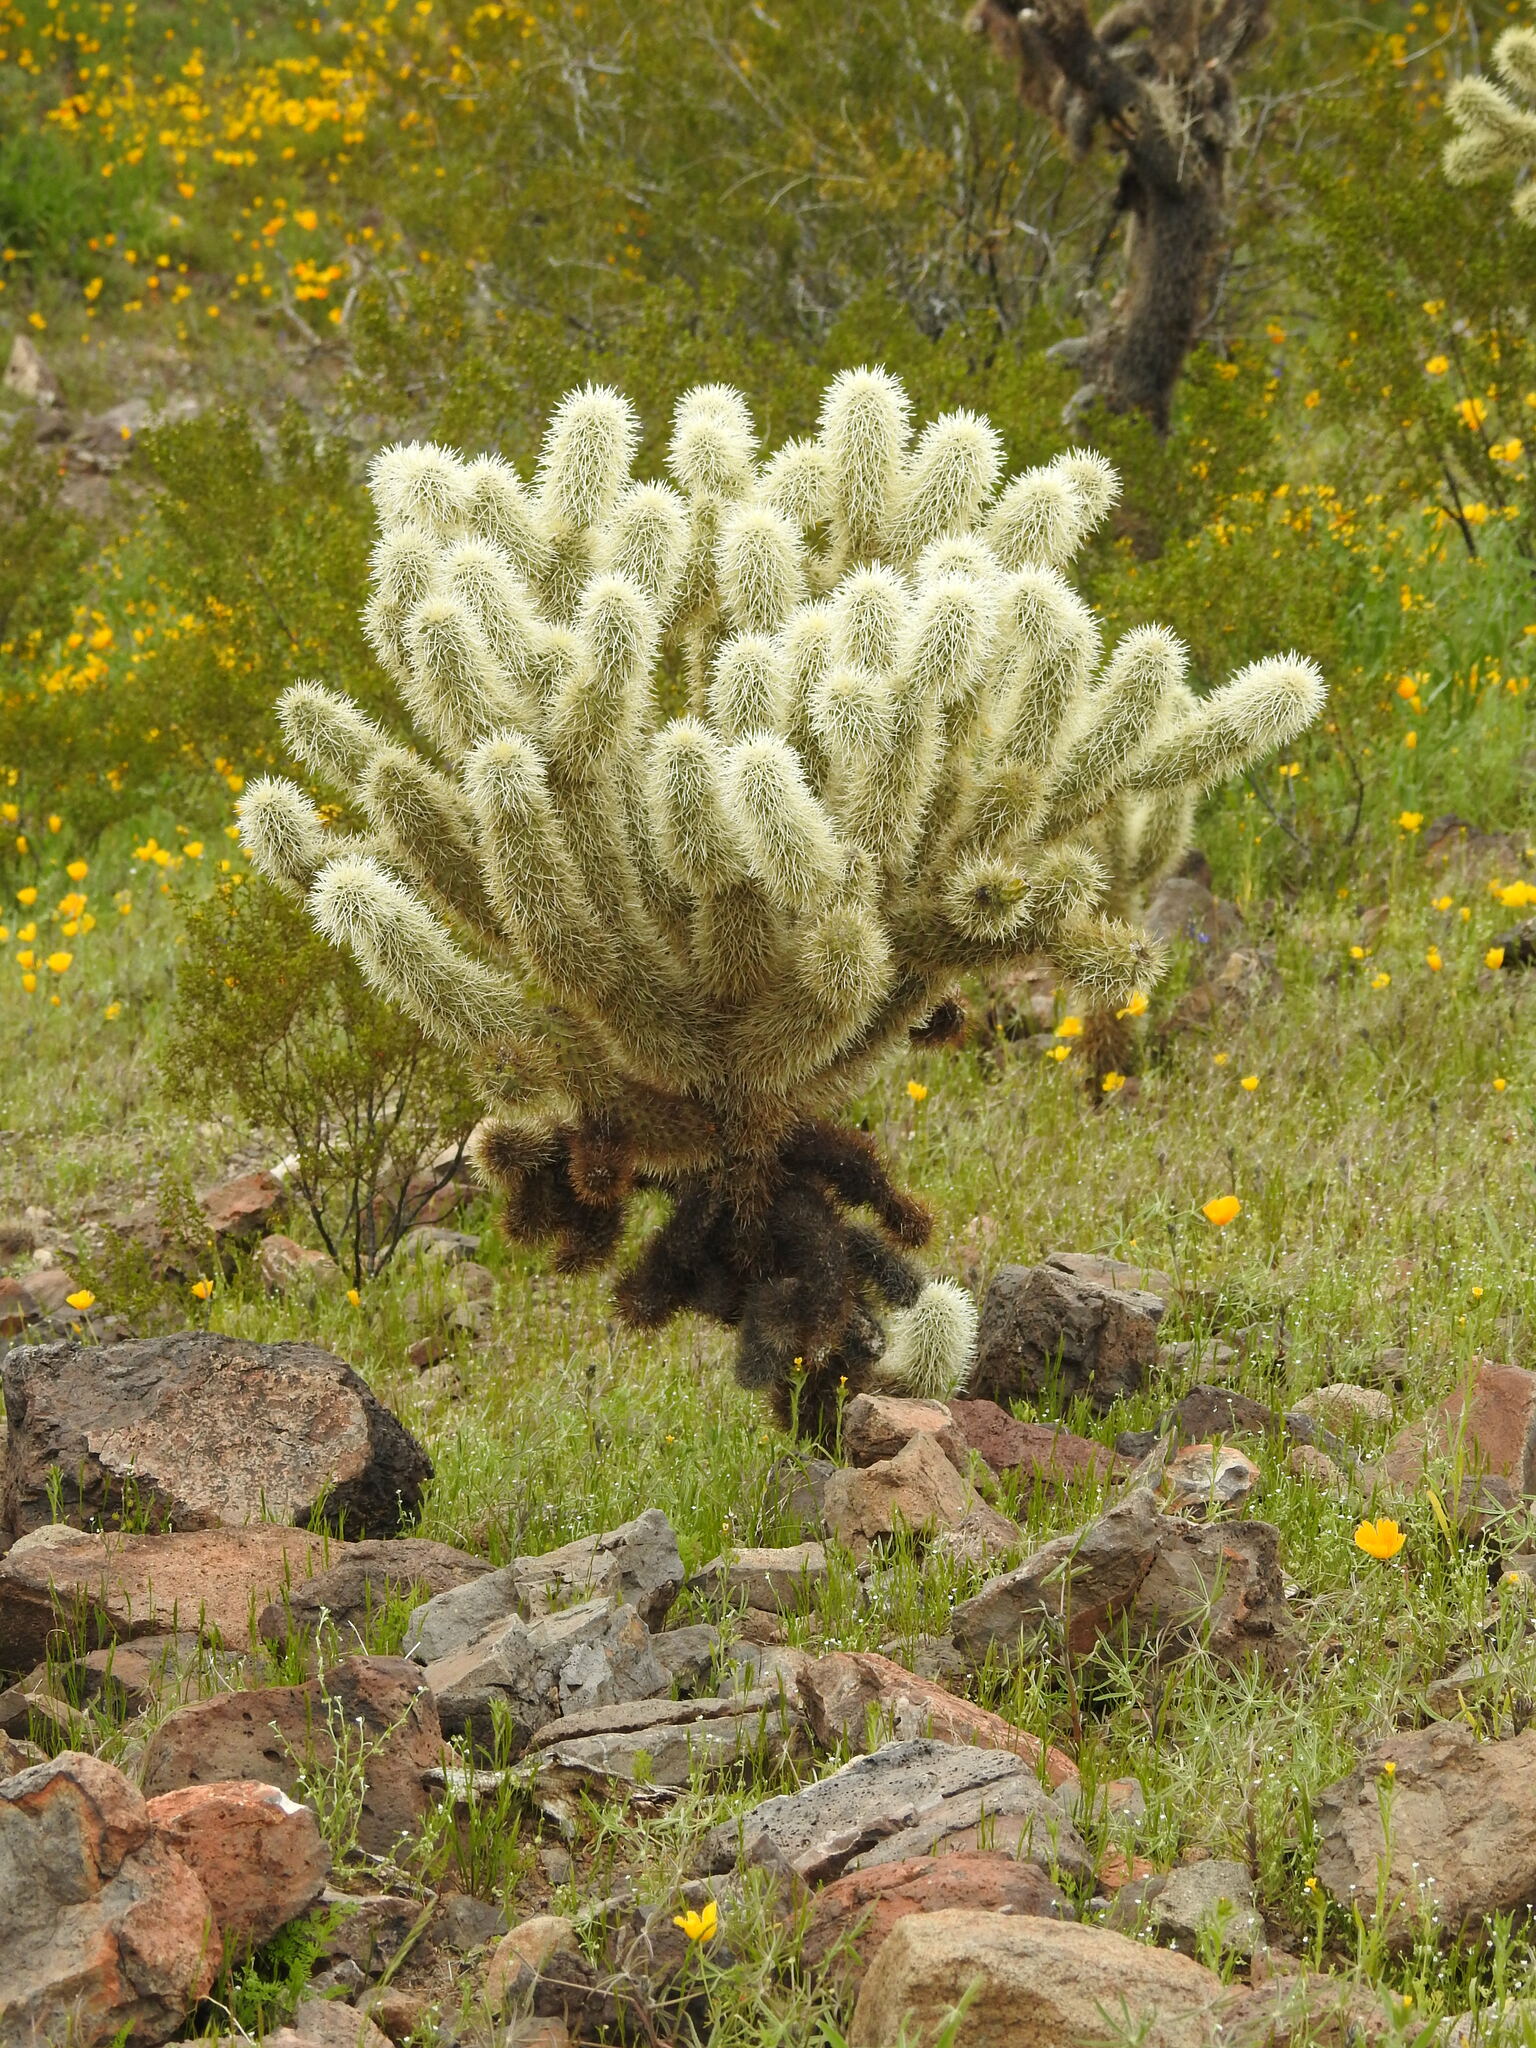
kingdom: Plantae
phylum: Tracheophyta
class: Magnoliopsida
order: Caryophyllales
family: Cactaceae
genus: Cylindropuntia
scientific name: Cylindropuntia fosbergii
